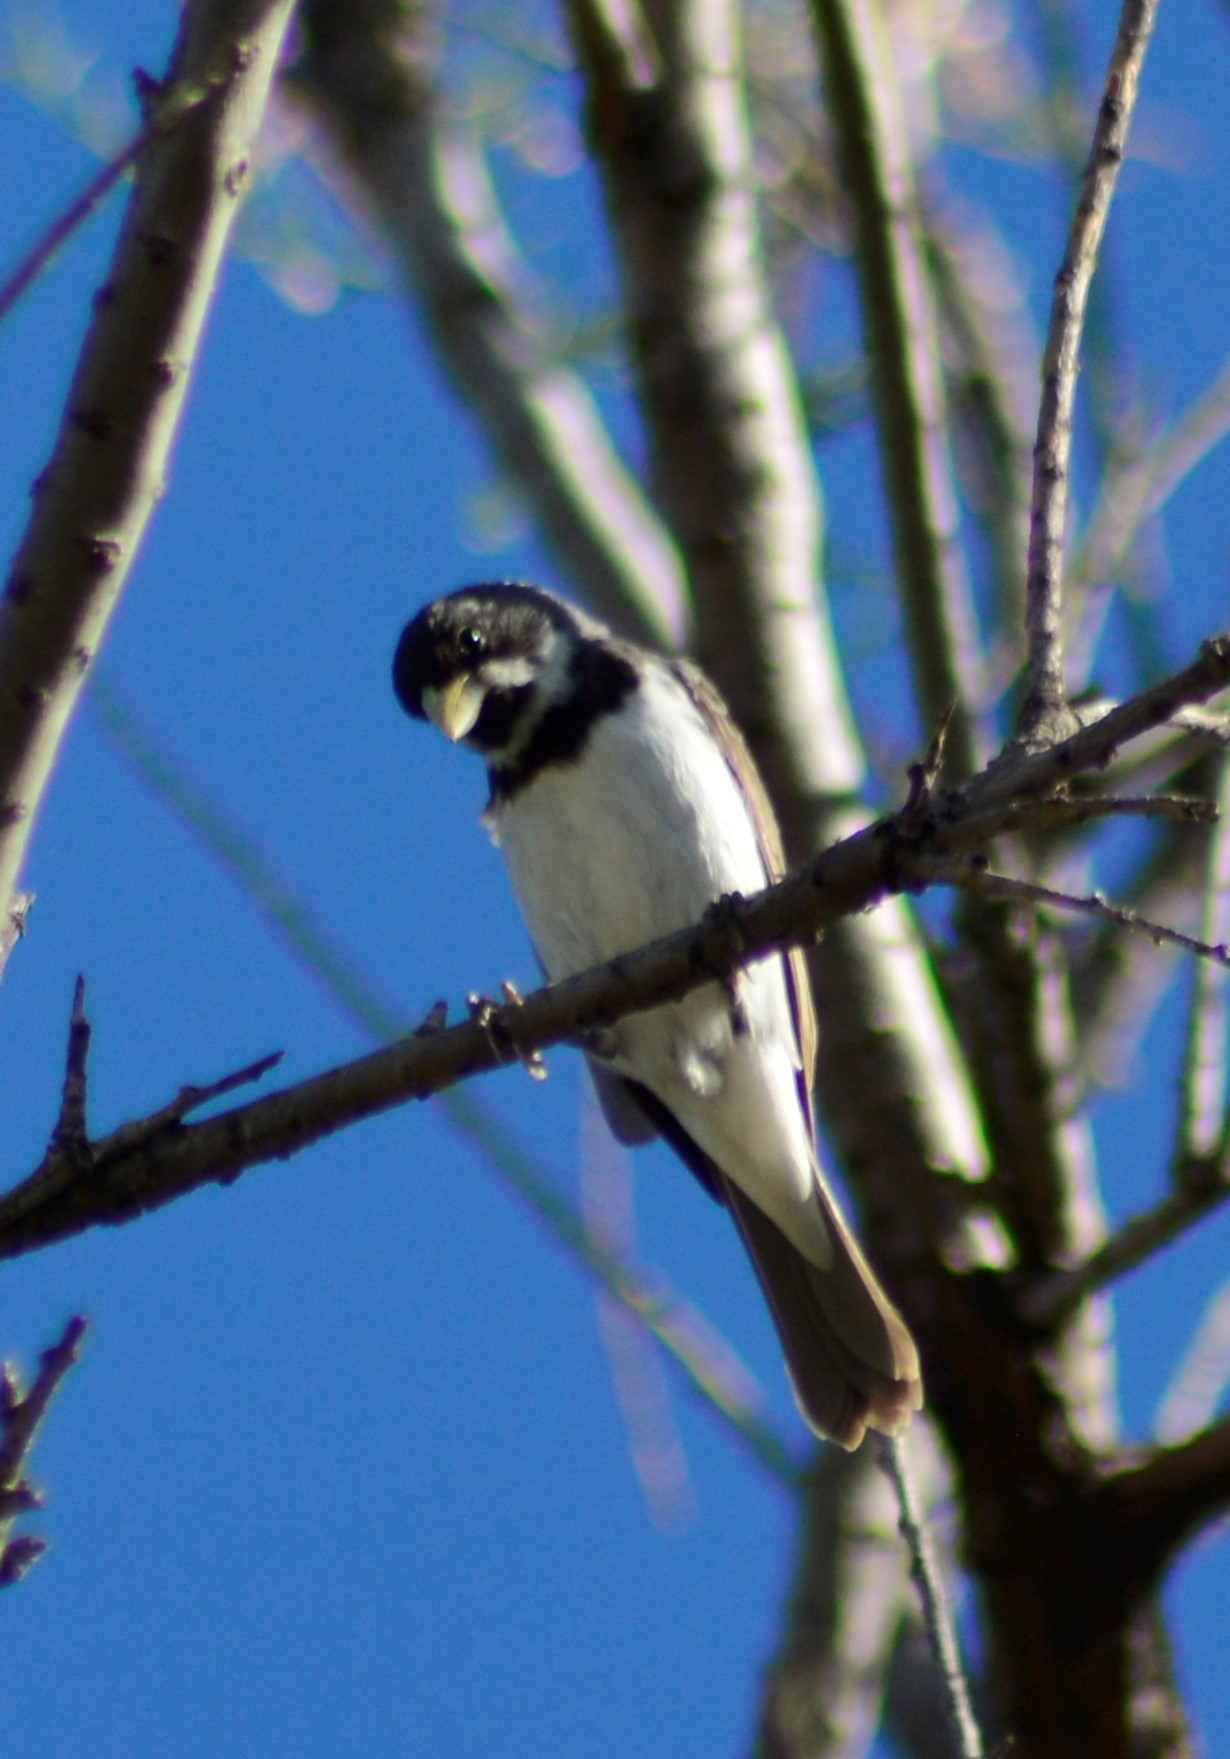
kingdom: Animalia
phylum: Chordata
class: Aves
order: Passeriformes
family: Thraupidae
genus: Sporophila
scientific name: Sporophila caerulescens
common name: Double-collared seedeater
